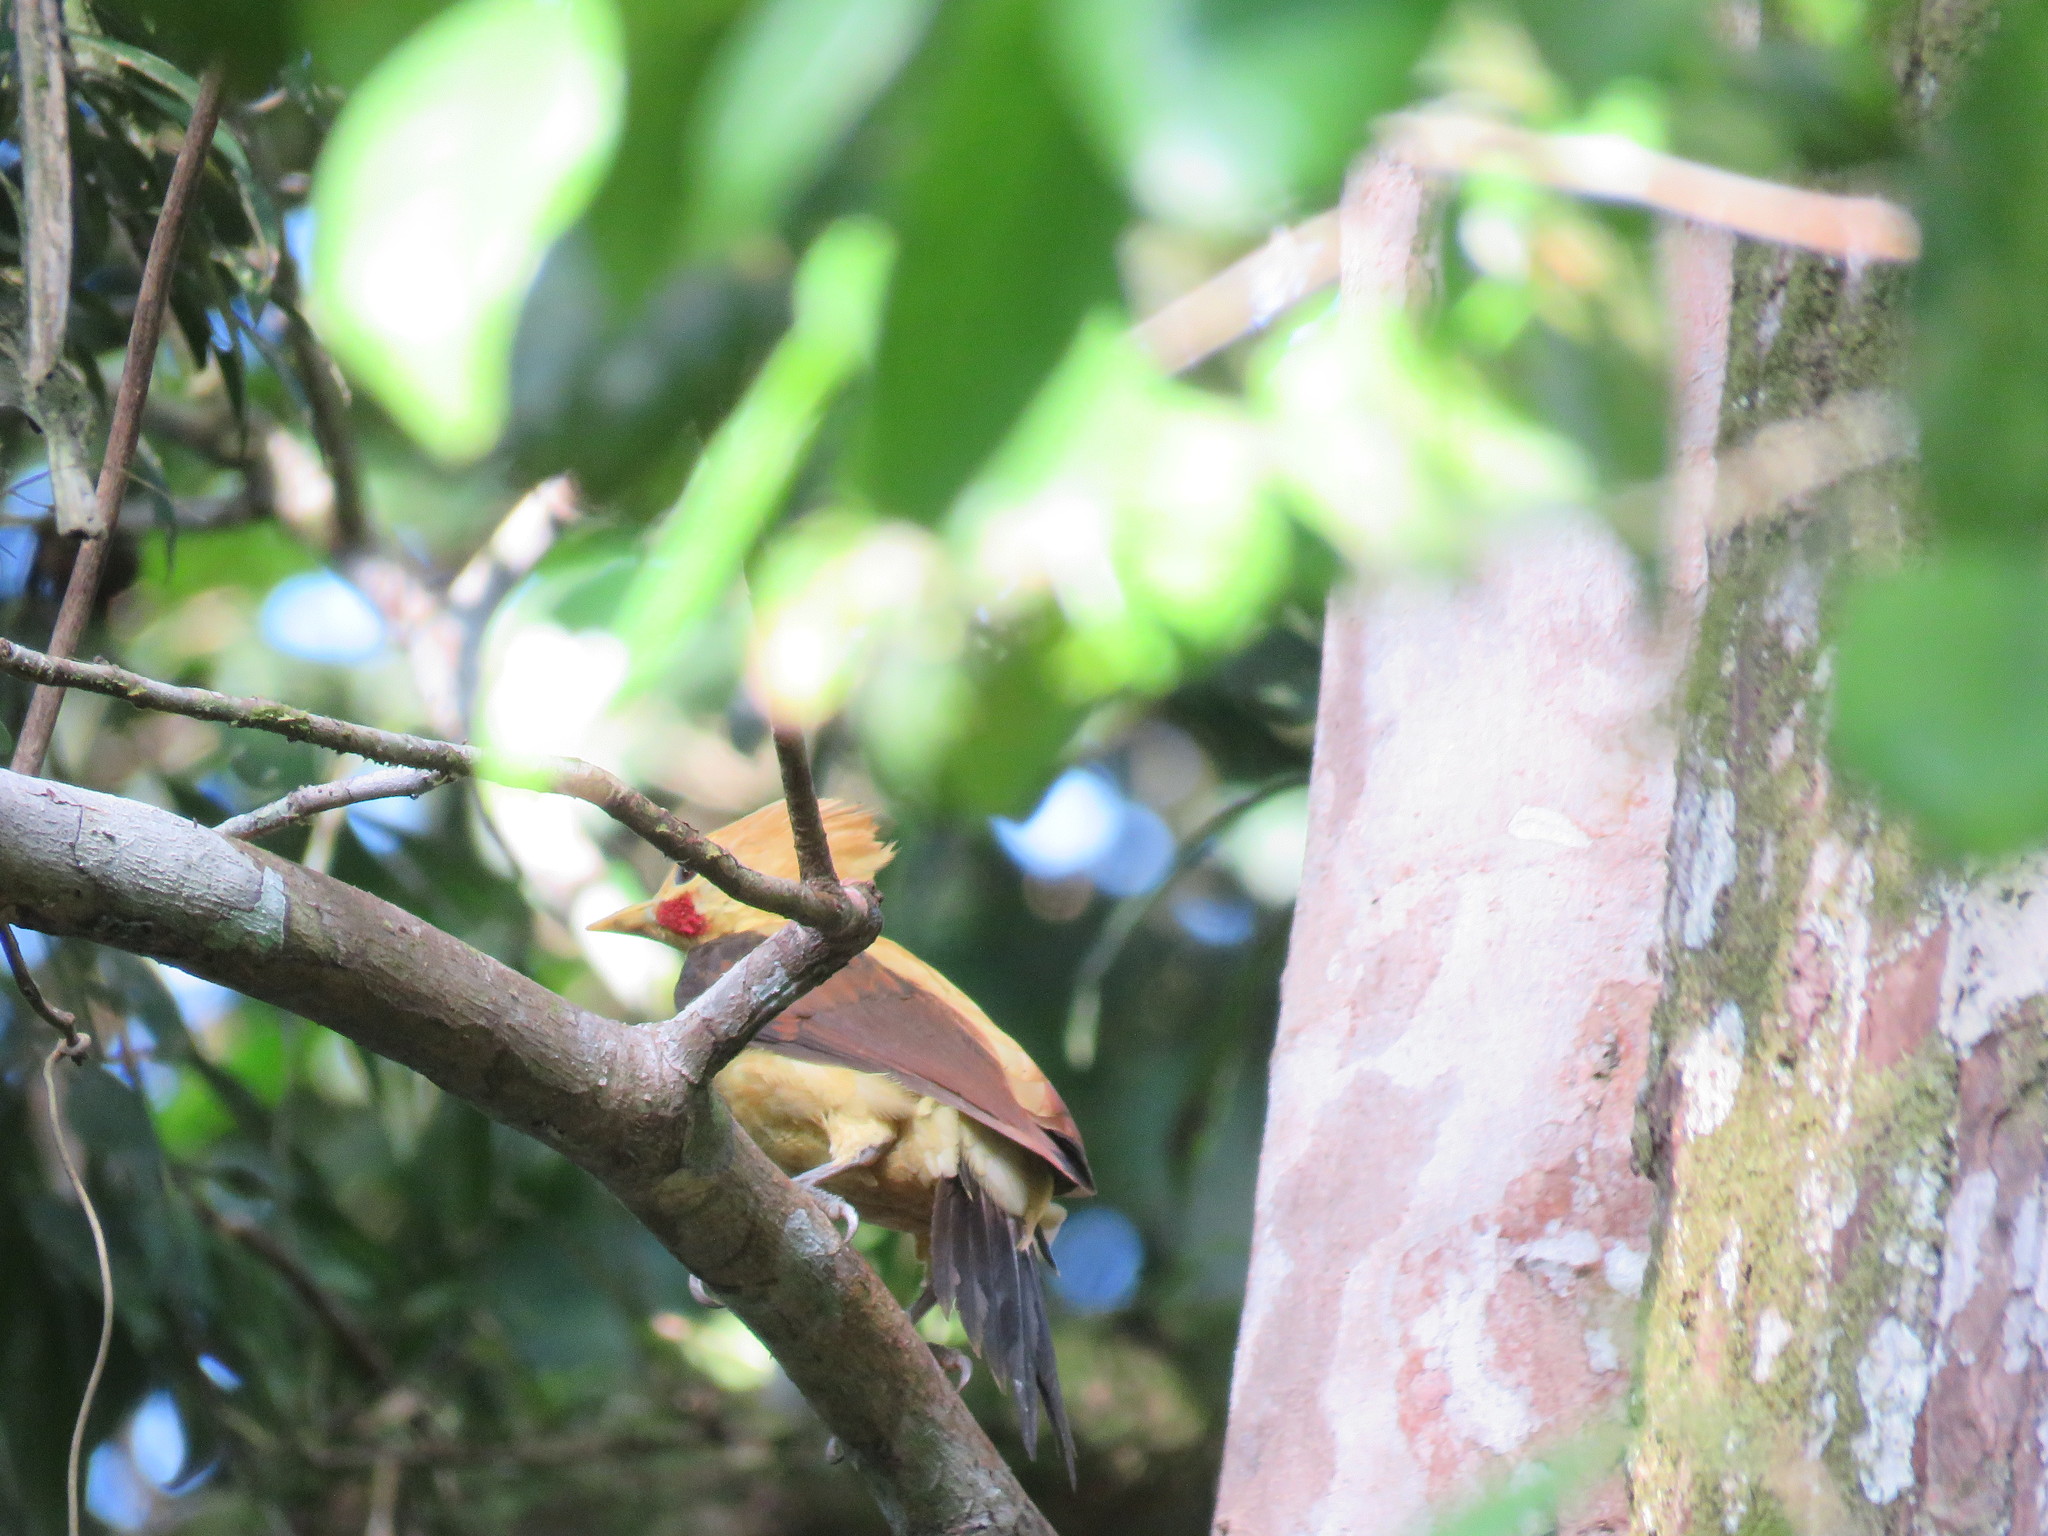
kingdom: Animalia
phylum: Chordata
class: Aves
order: Piciformes
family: Picidae
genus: Celeus
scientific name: Celeus flavus
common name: Cream-colored woodpecker
